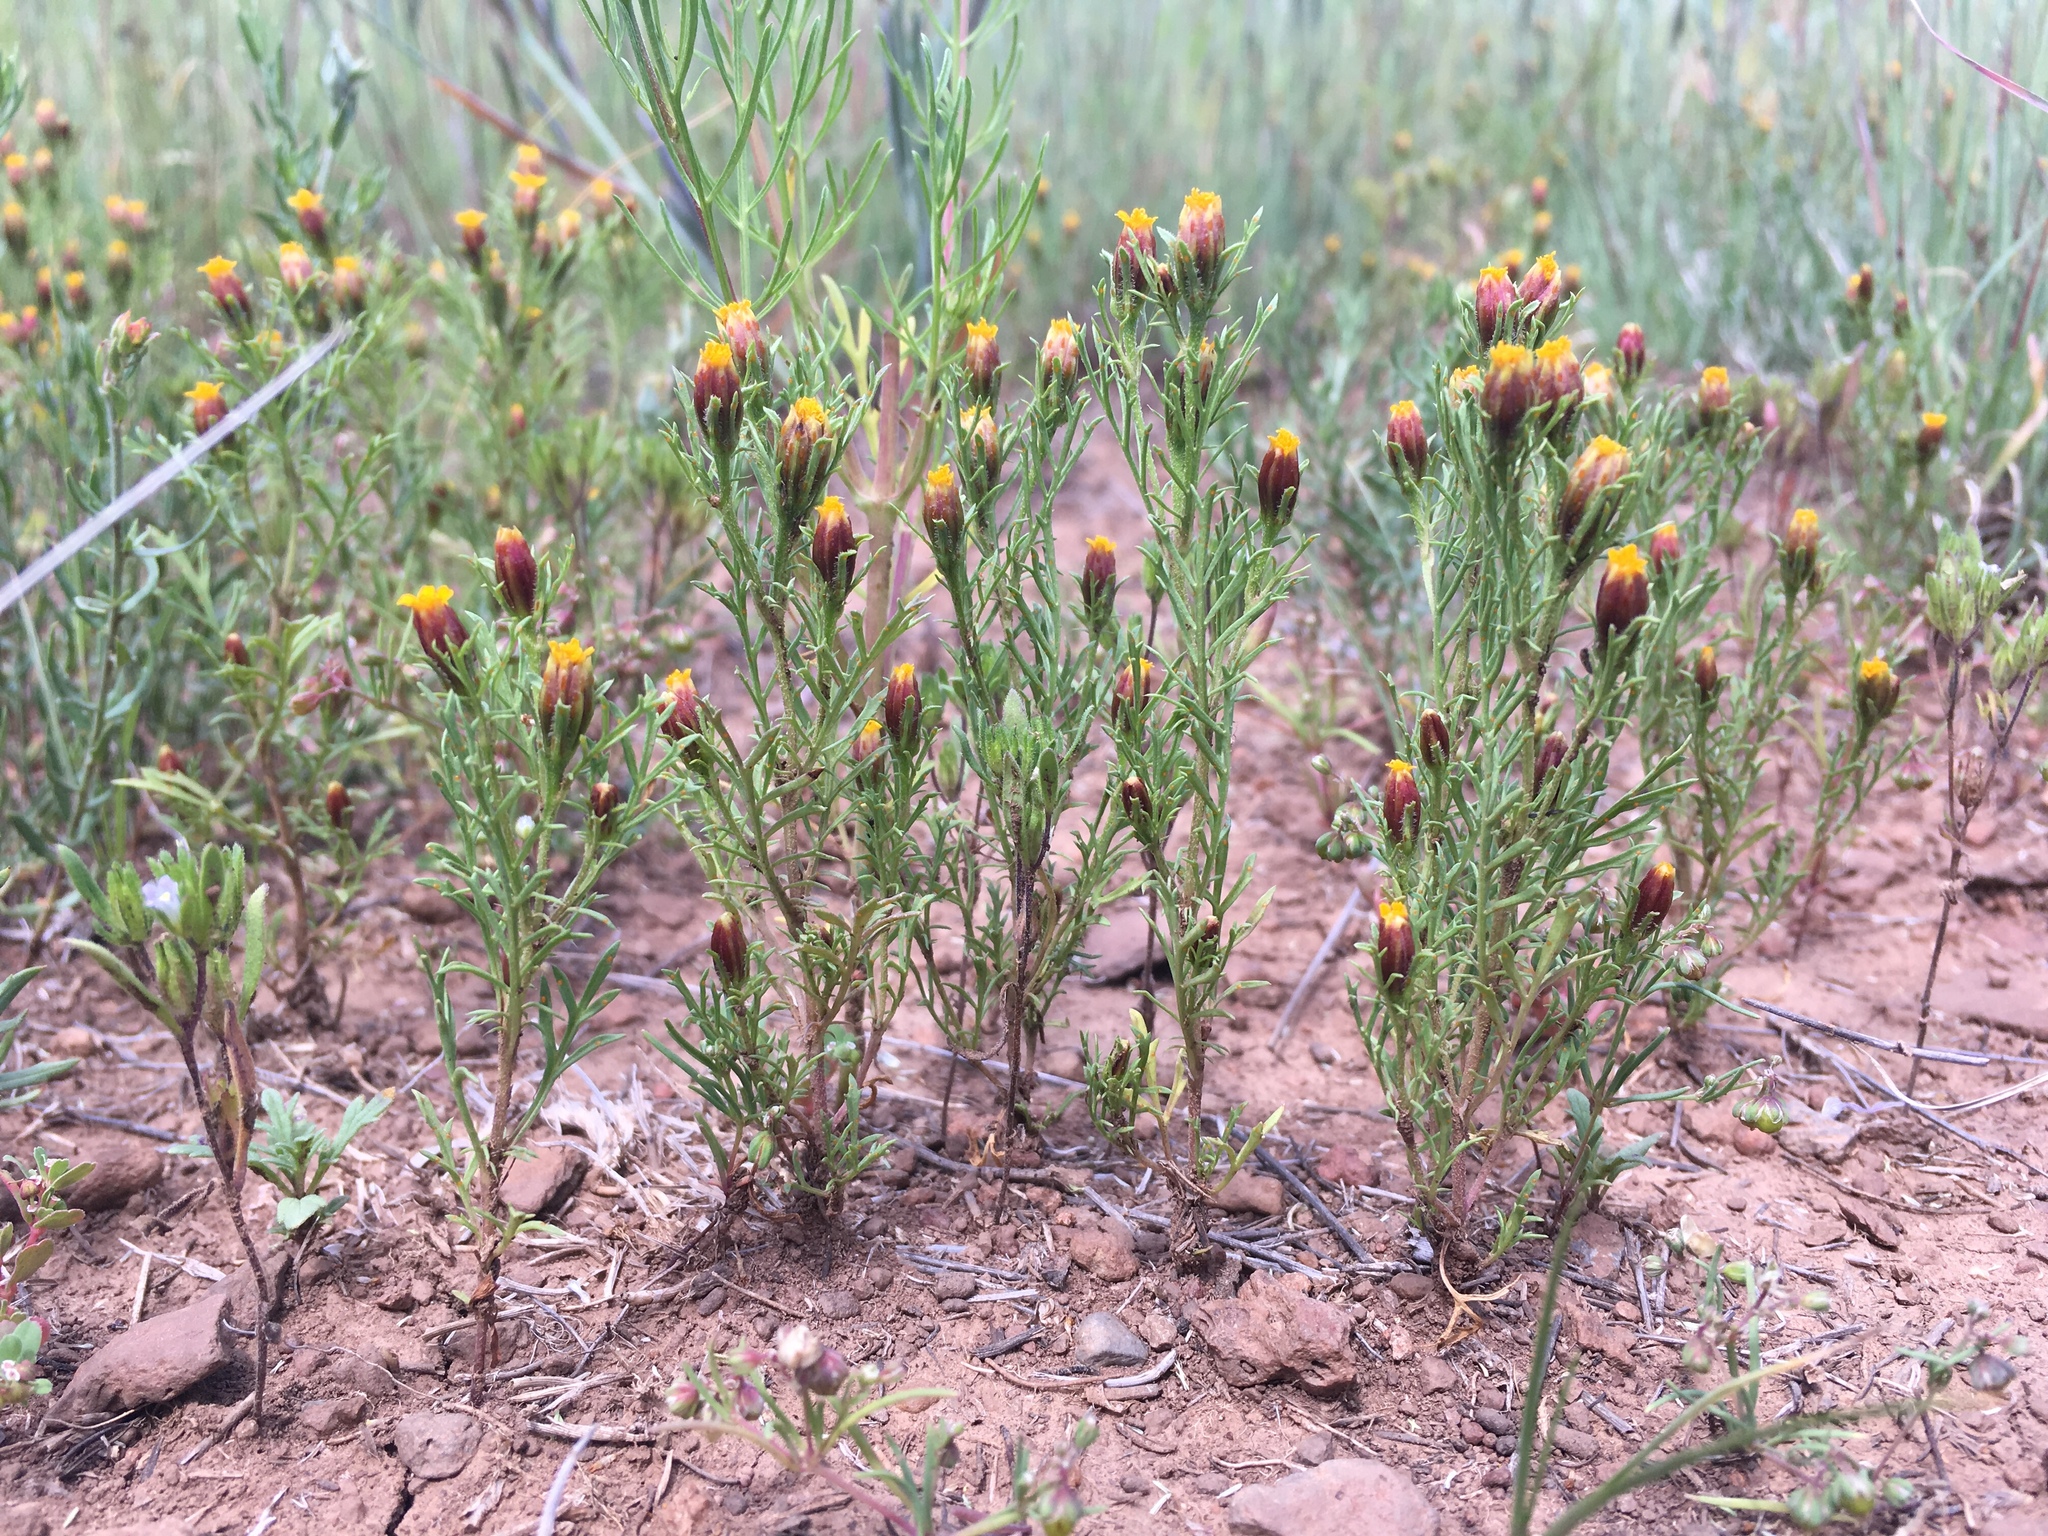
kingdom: Plantae
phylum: Tracheophyta
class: Magnoliopsida
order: Asterales
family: Asteraceae
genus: Dyssodia
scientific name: Dyssodia papposa
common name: Dogweed
